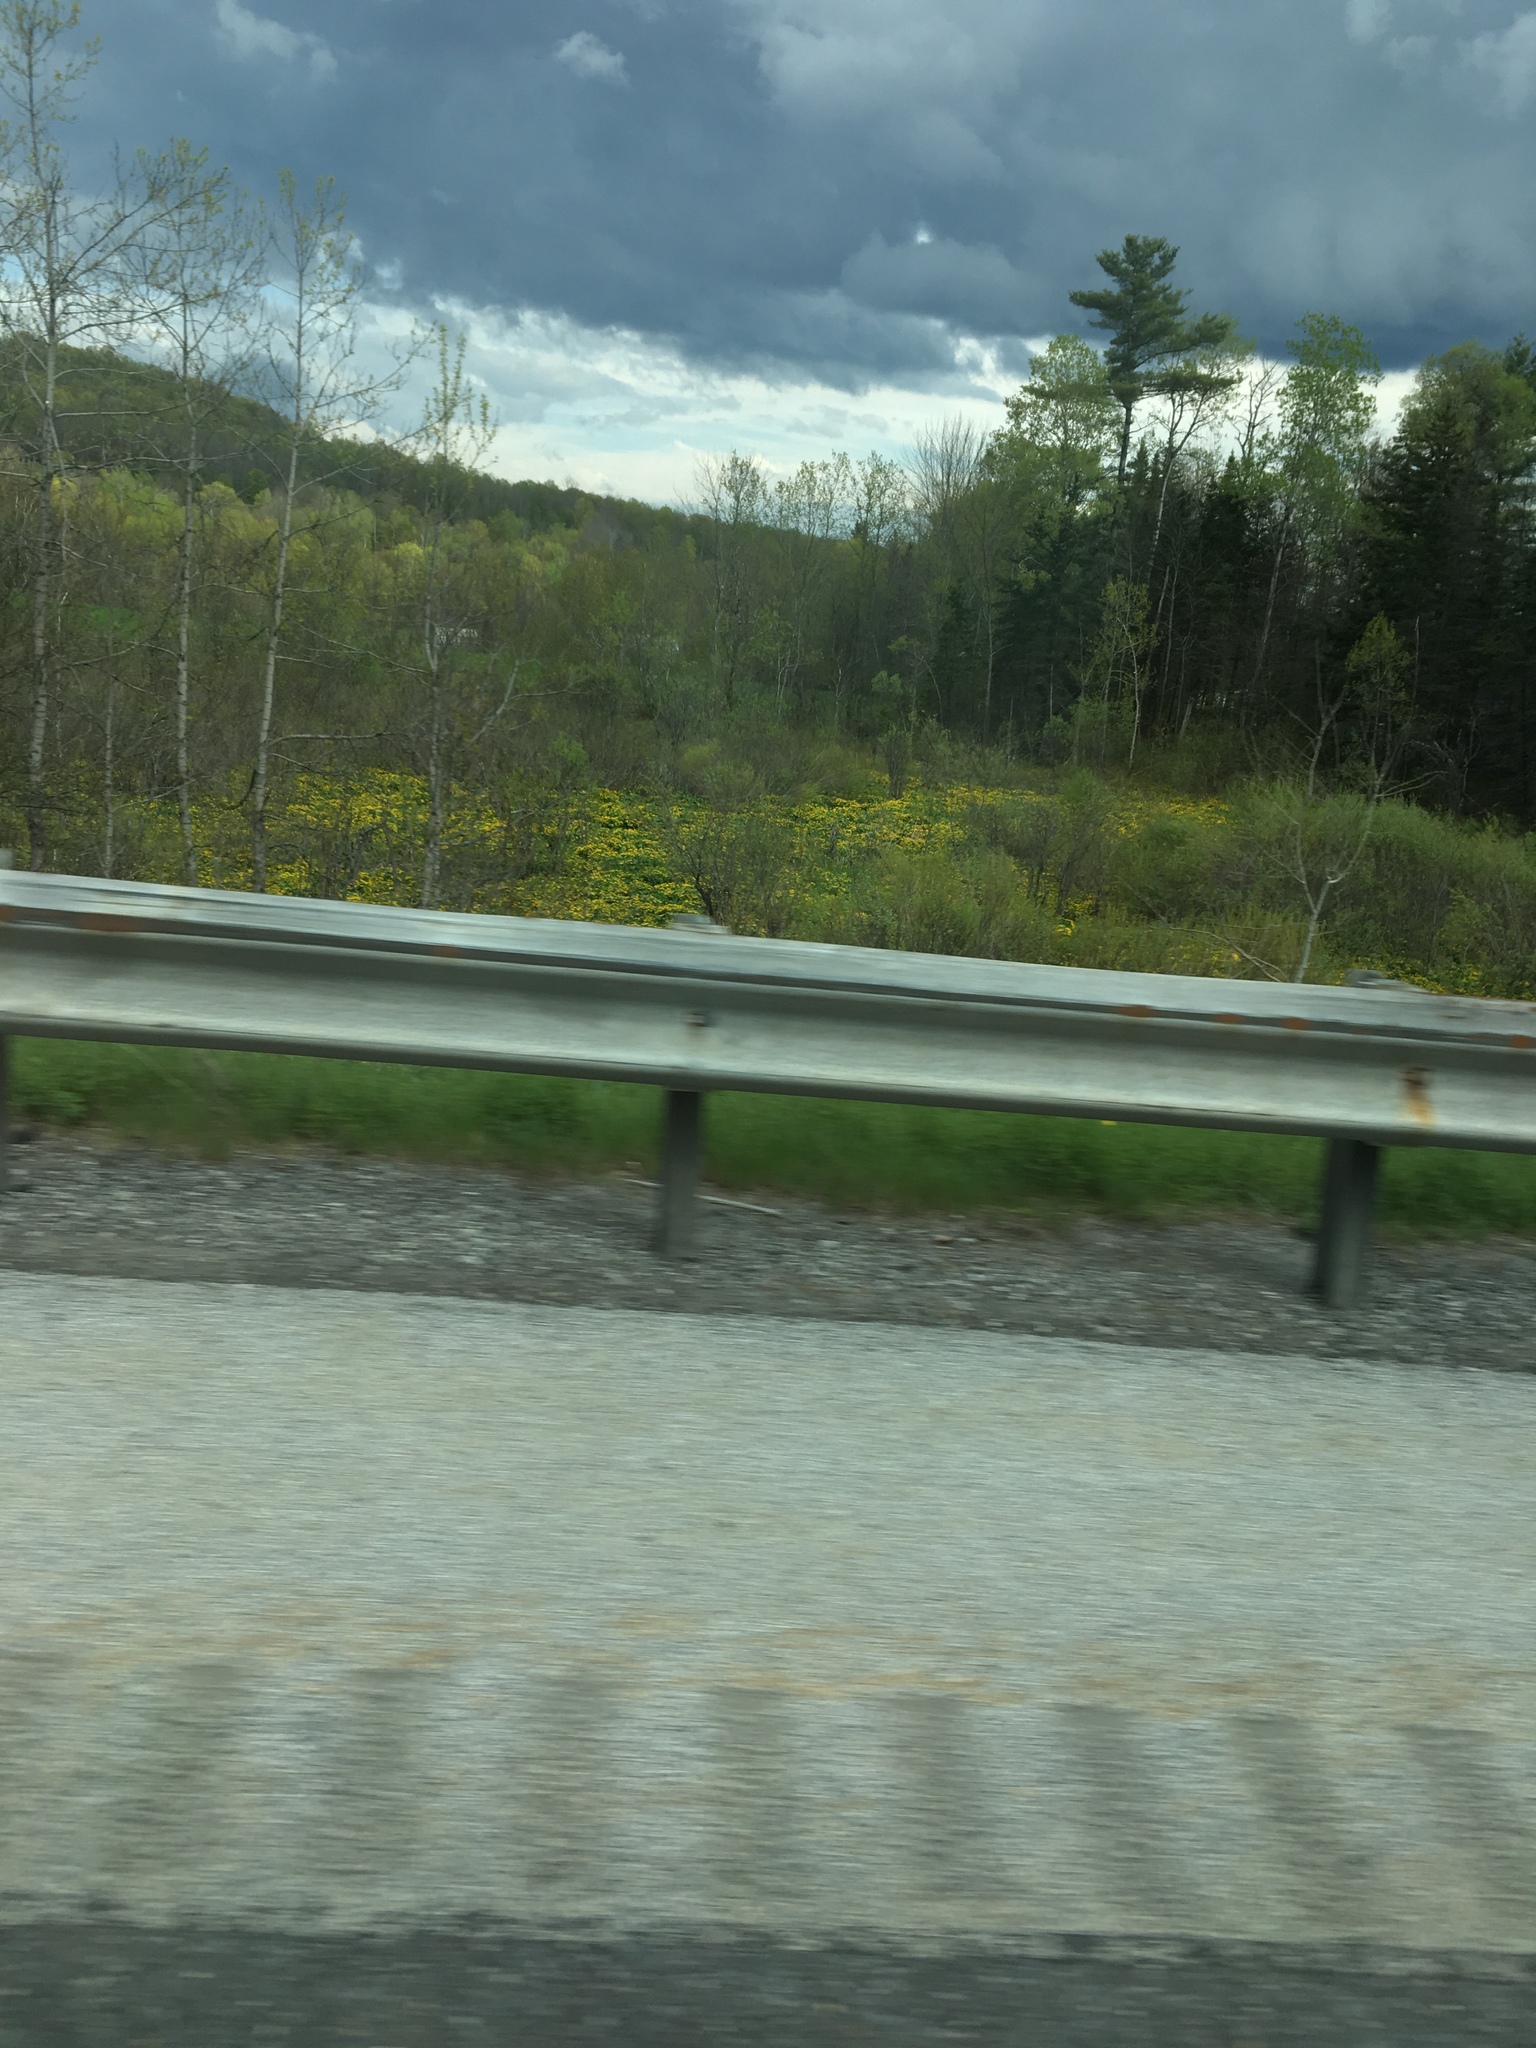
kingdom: Plantae
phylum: Tracheophyta
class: Magnoliopsida
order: Ranunculales
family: Ranunculaceae
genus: Caltha
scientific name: Caltha palustris
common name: Marsh marigold
